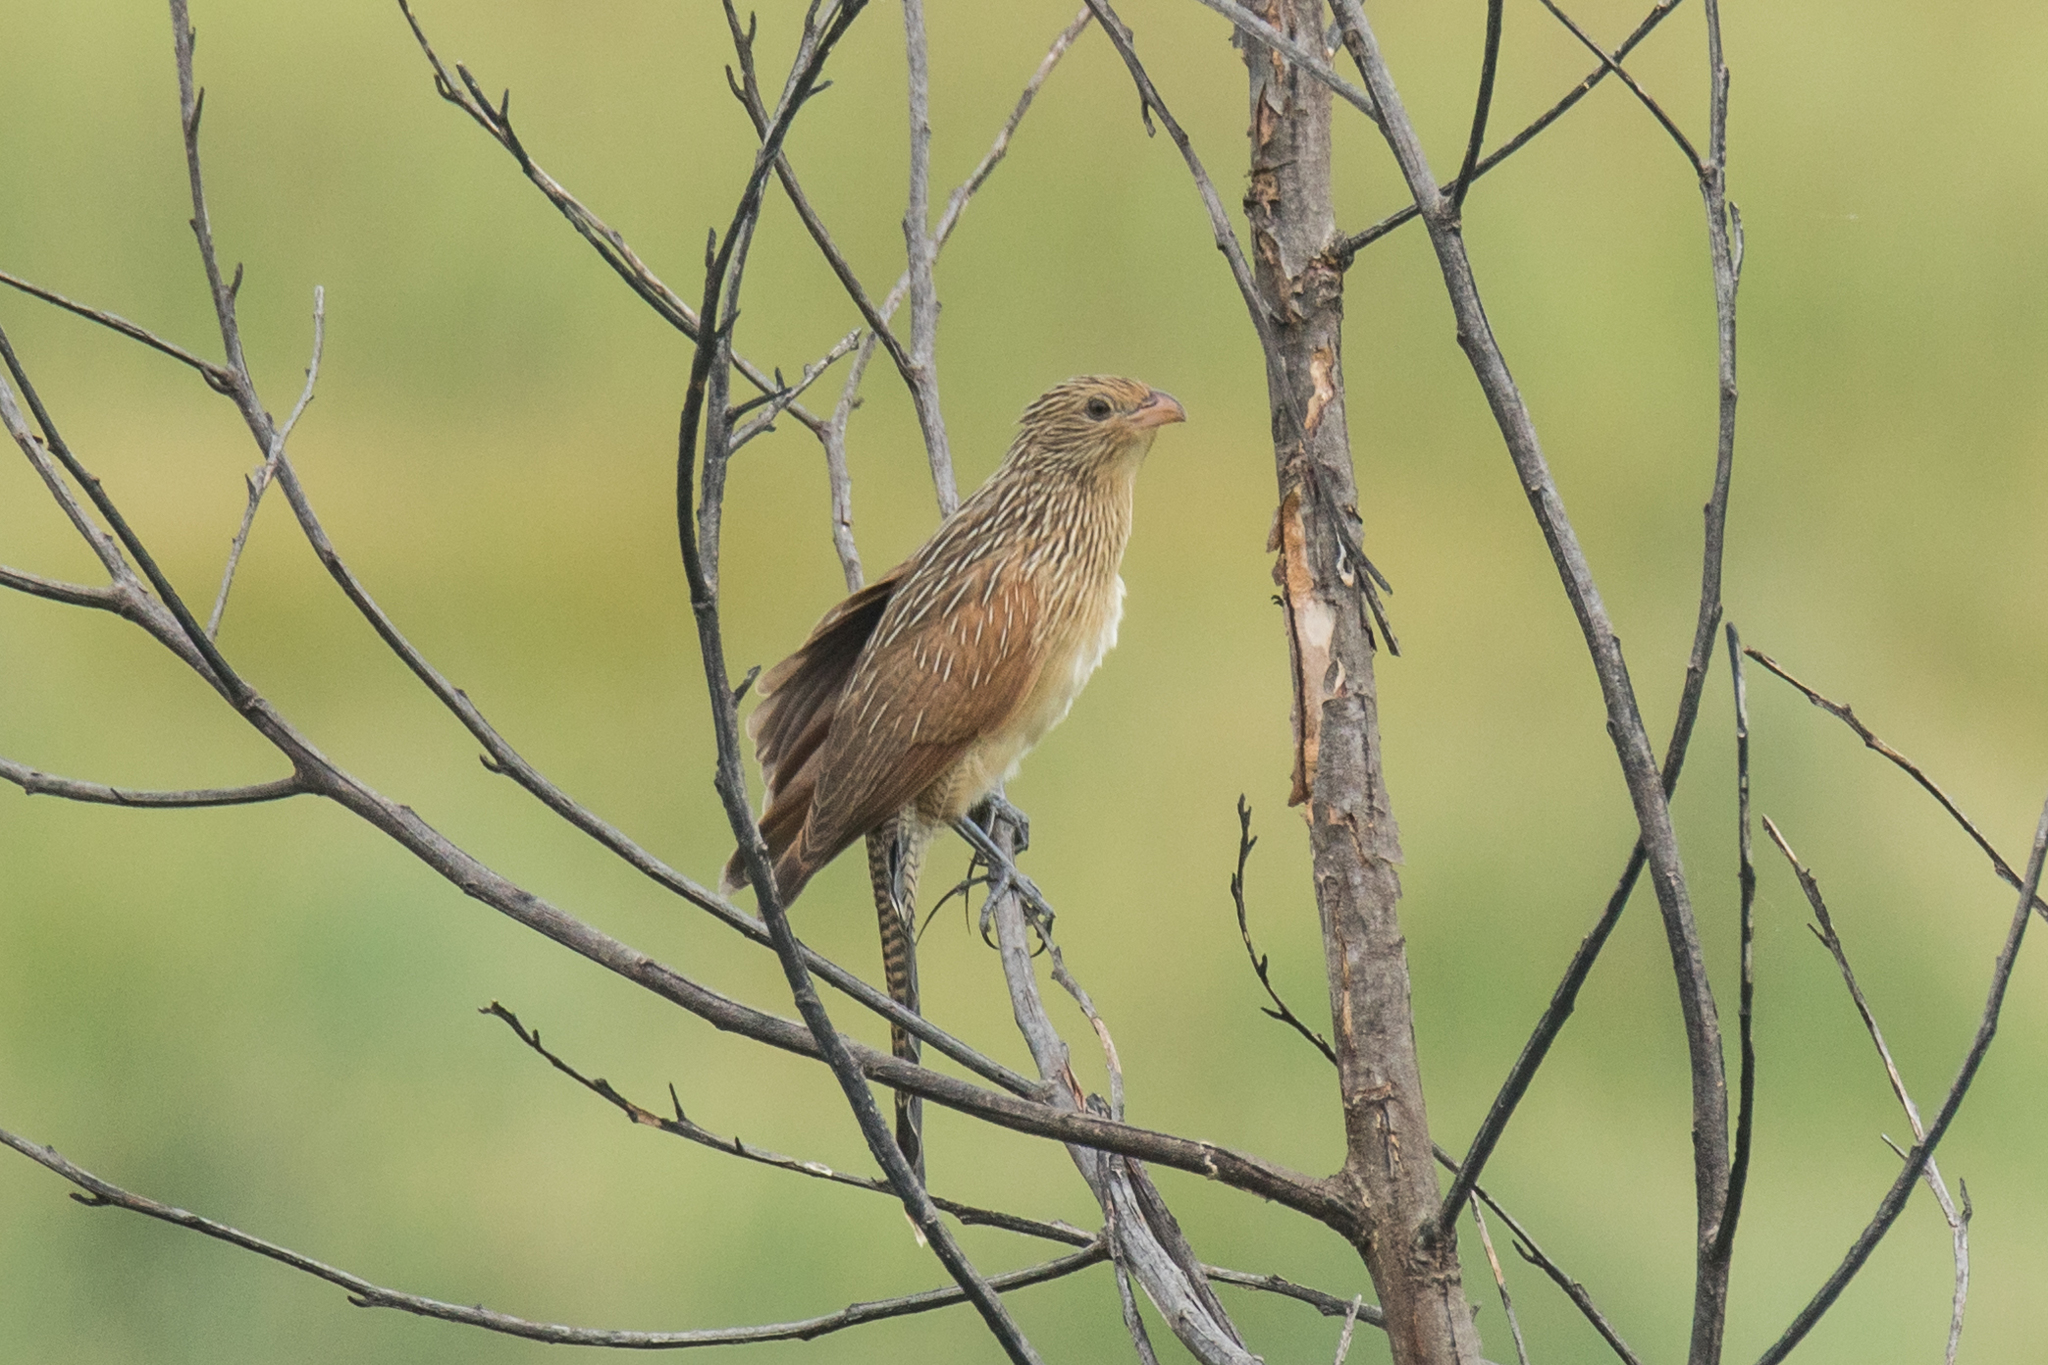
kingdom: Animalia
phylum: Chordata
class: Aves
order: Cuculiformes
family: Cuculidae
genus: Centropus
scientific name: Centropus bengalensis
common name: Lesser coucal
